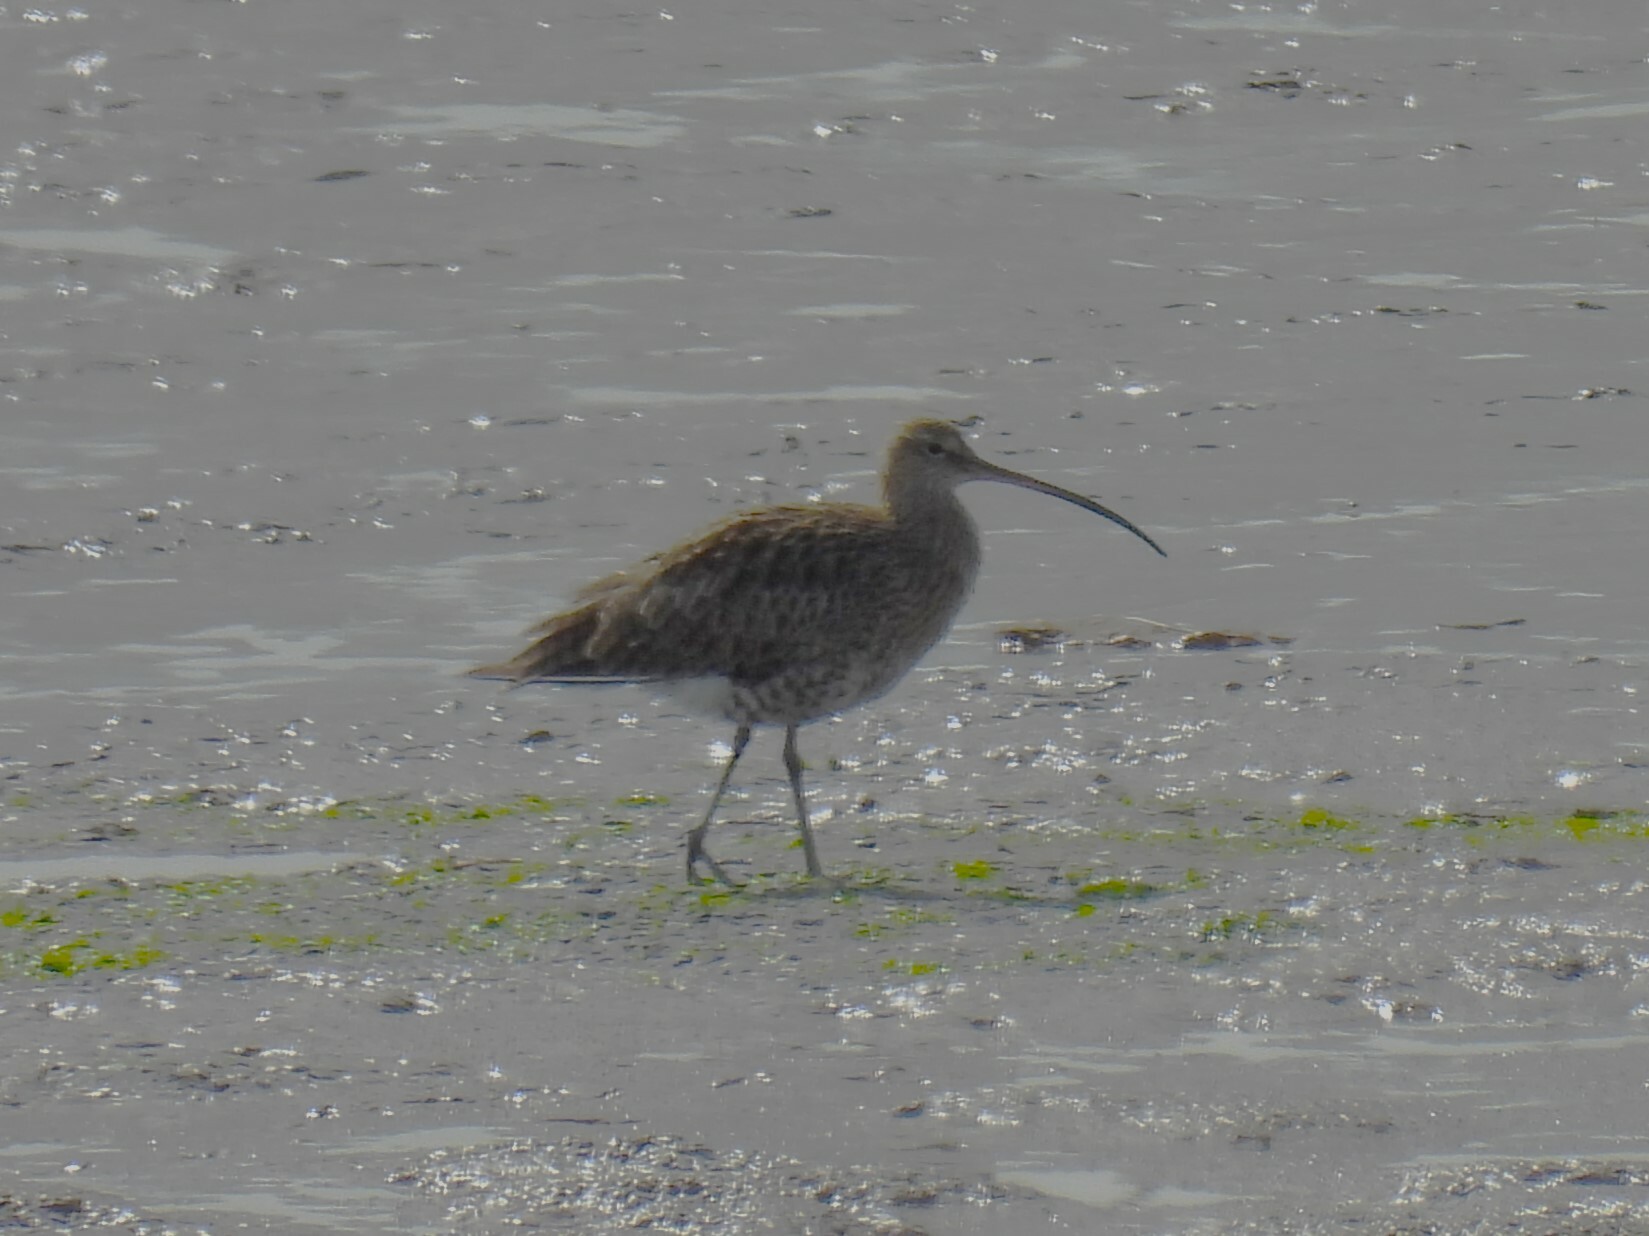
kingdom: Animalia
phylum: Chordata
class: Aves
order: Charadriiformes
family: Scolopacidae
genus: Numenius
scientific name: Numenius arquata
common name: Eurasian curlew
